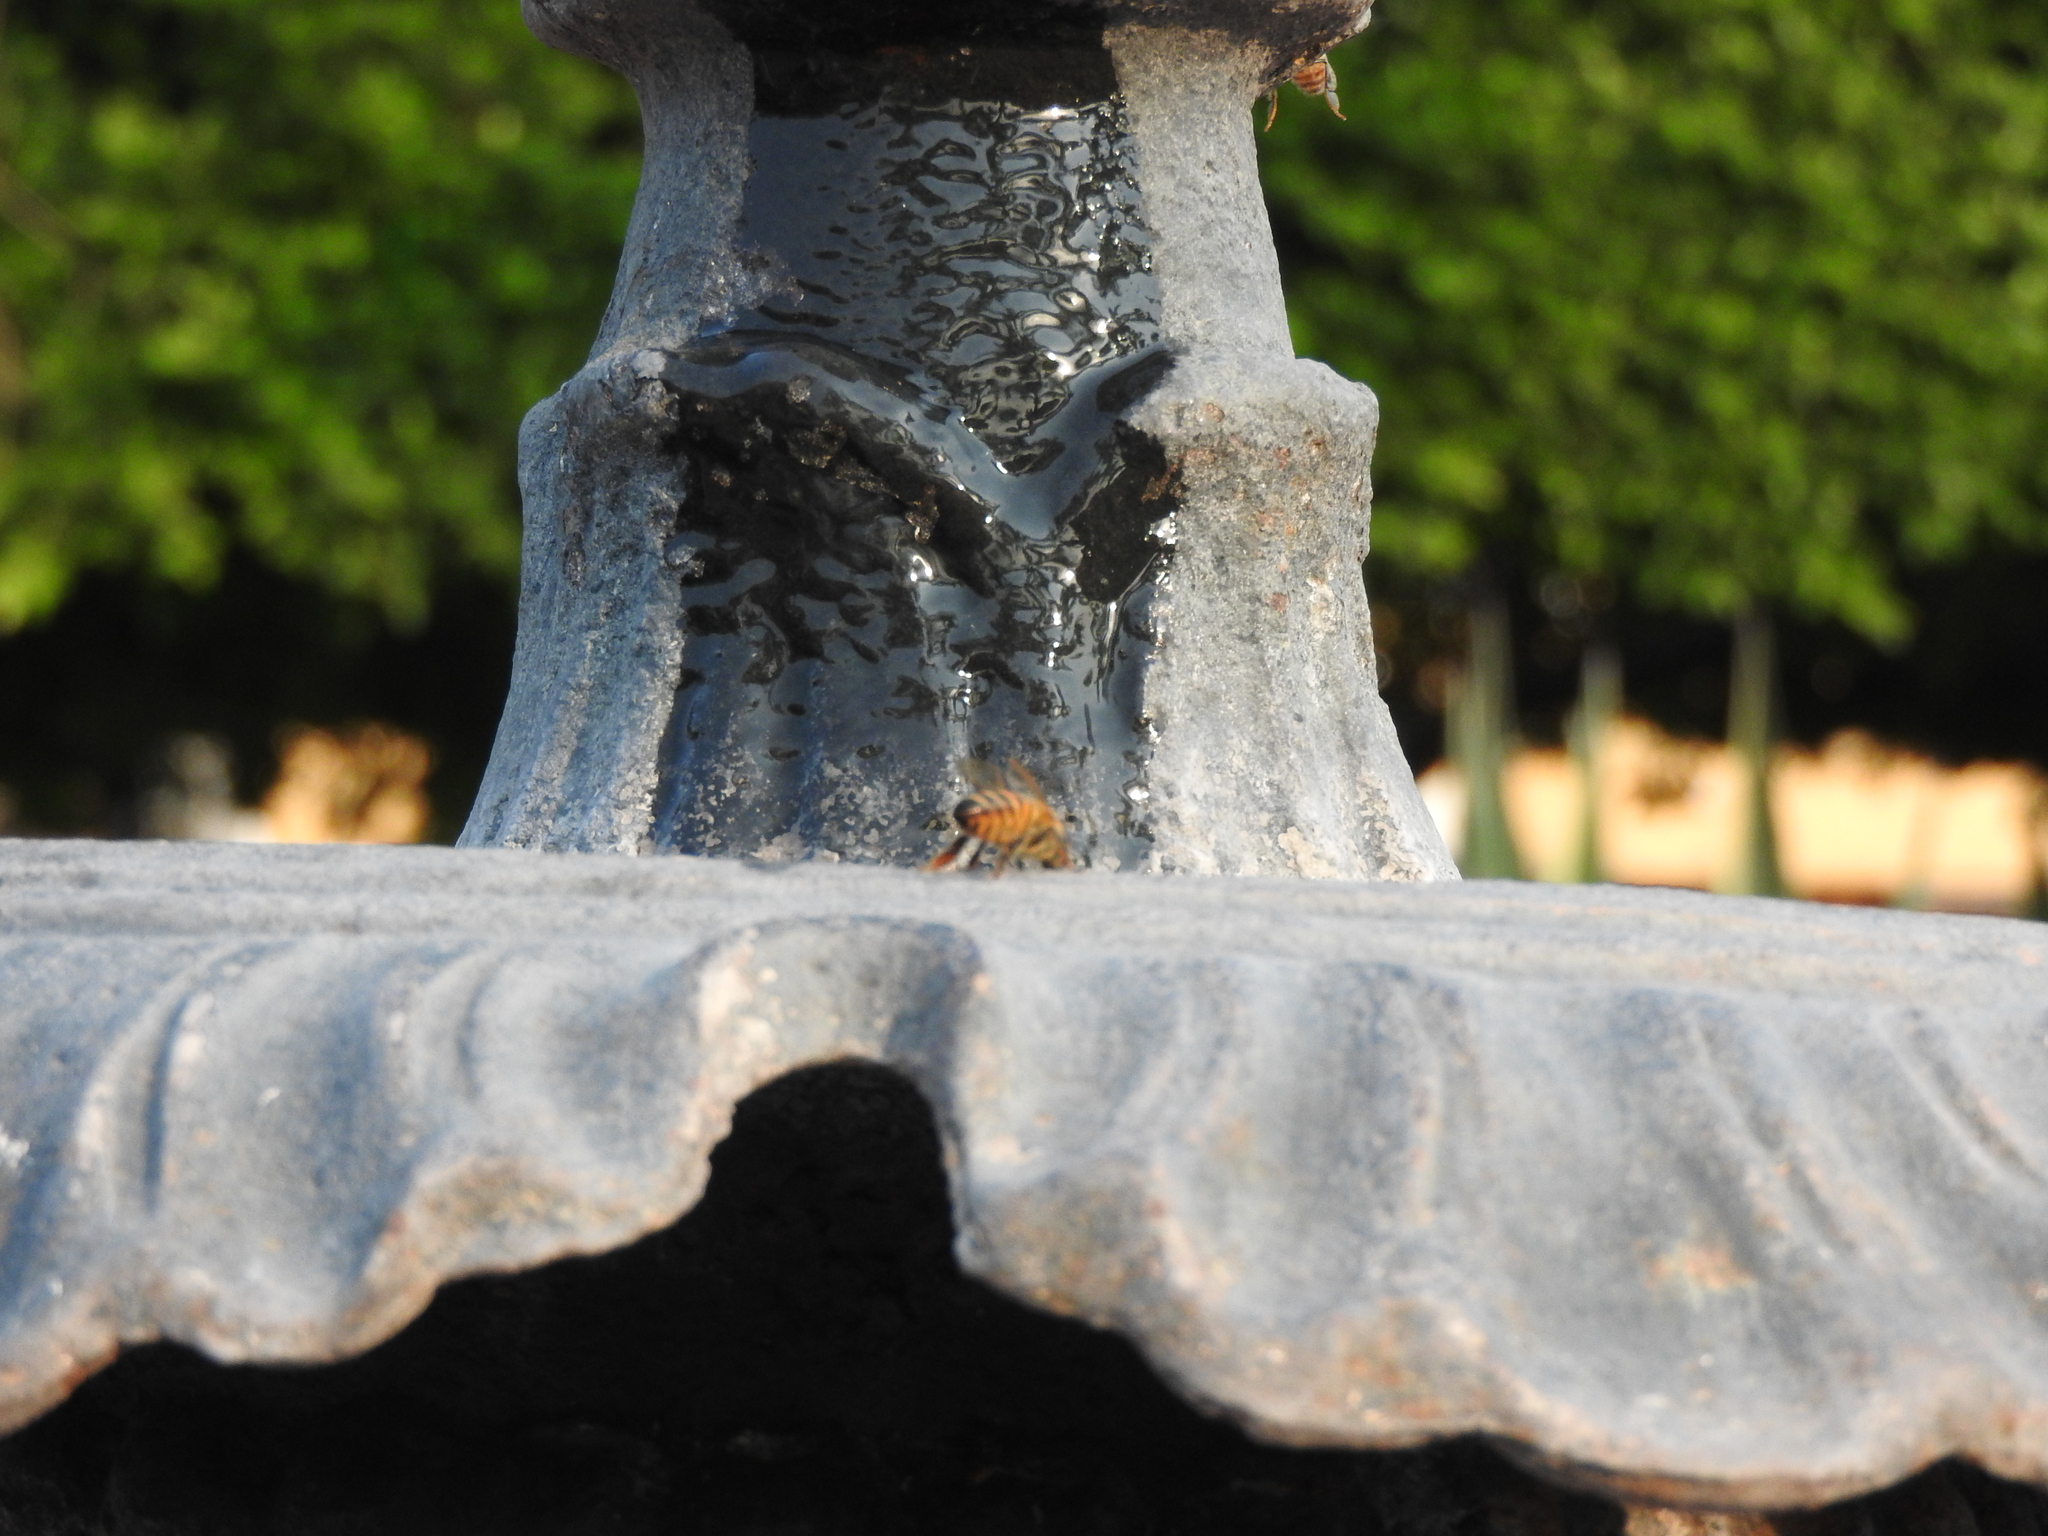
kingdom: Animalia
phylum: Arthropoda
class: Insecta
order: Hymenoptera
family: Apidae
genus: Apis
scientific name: Apis mellifera
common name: Honey bee
